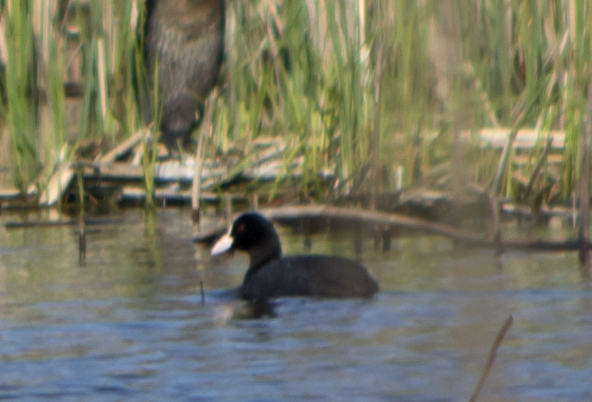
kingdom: Animalia
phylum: Chordata
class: Aves
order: Gruiformes
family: Rallidae
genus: Fulica
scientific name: Fulica atra
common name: Eurasian coot
